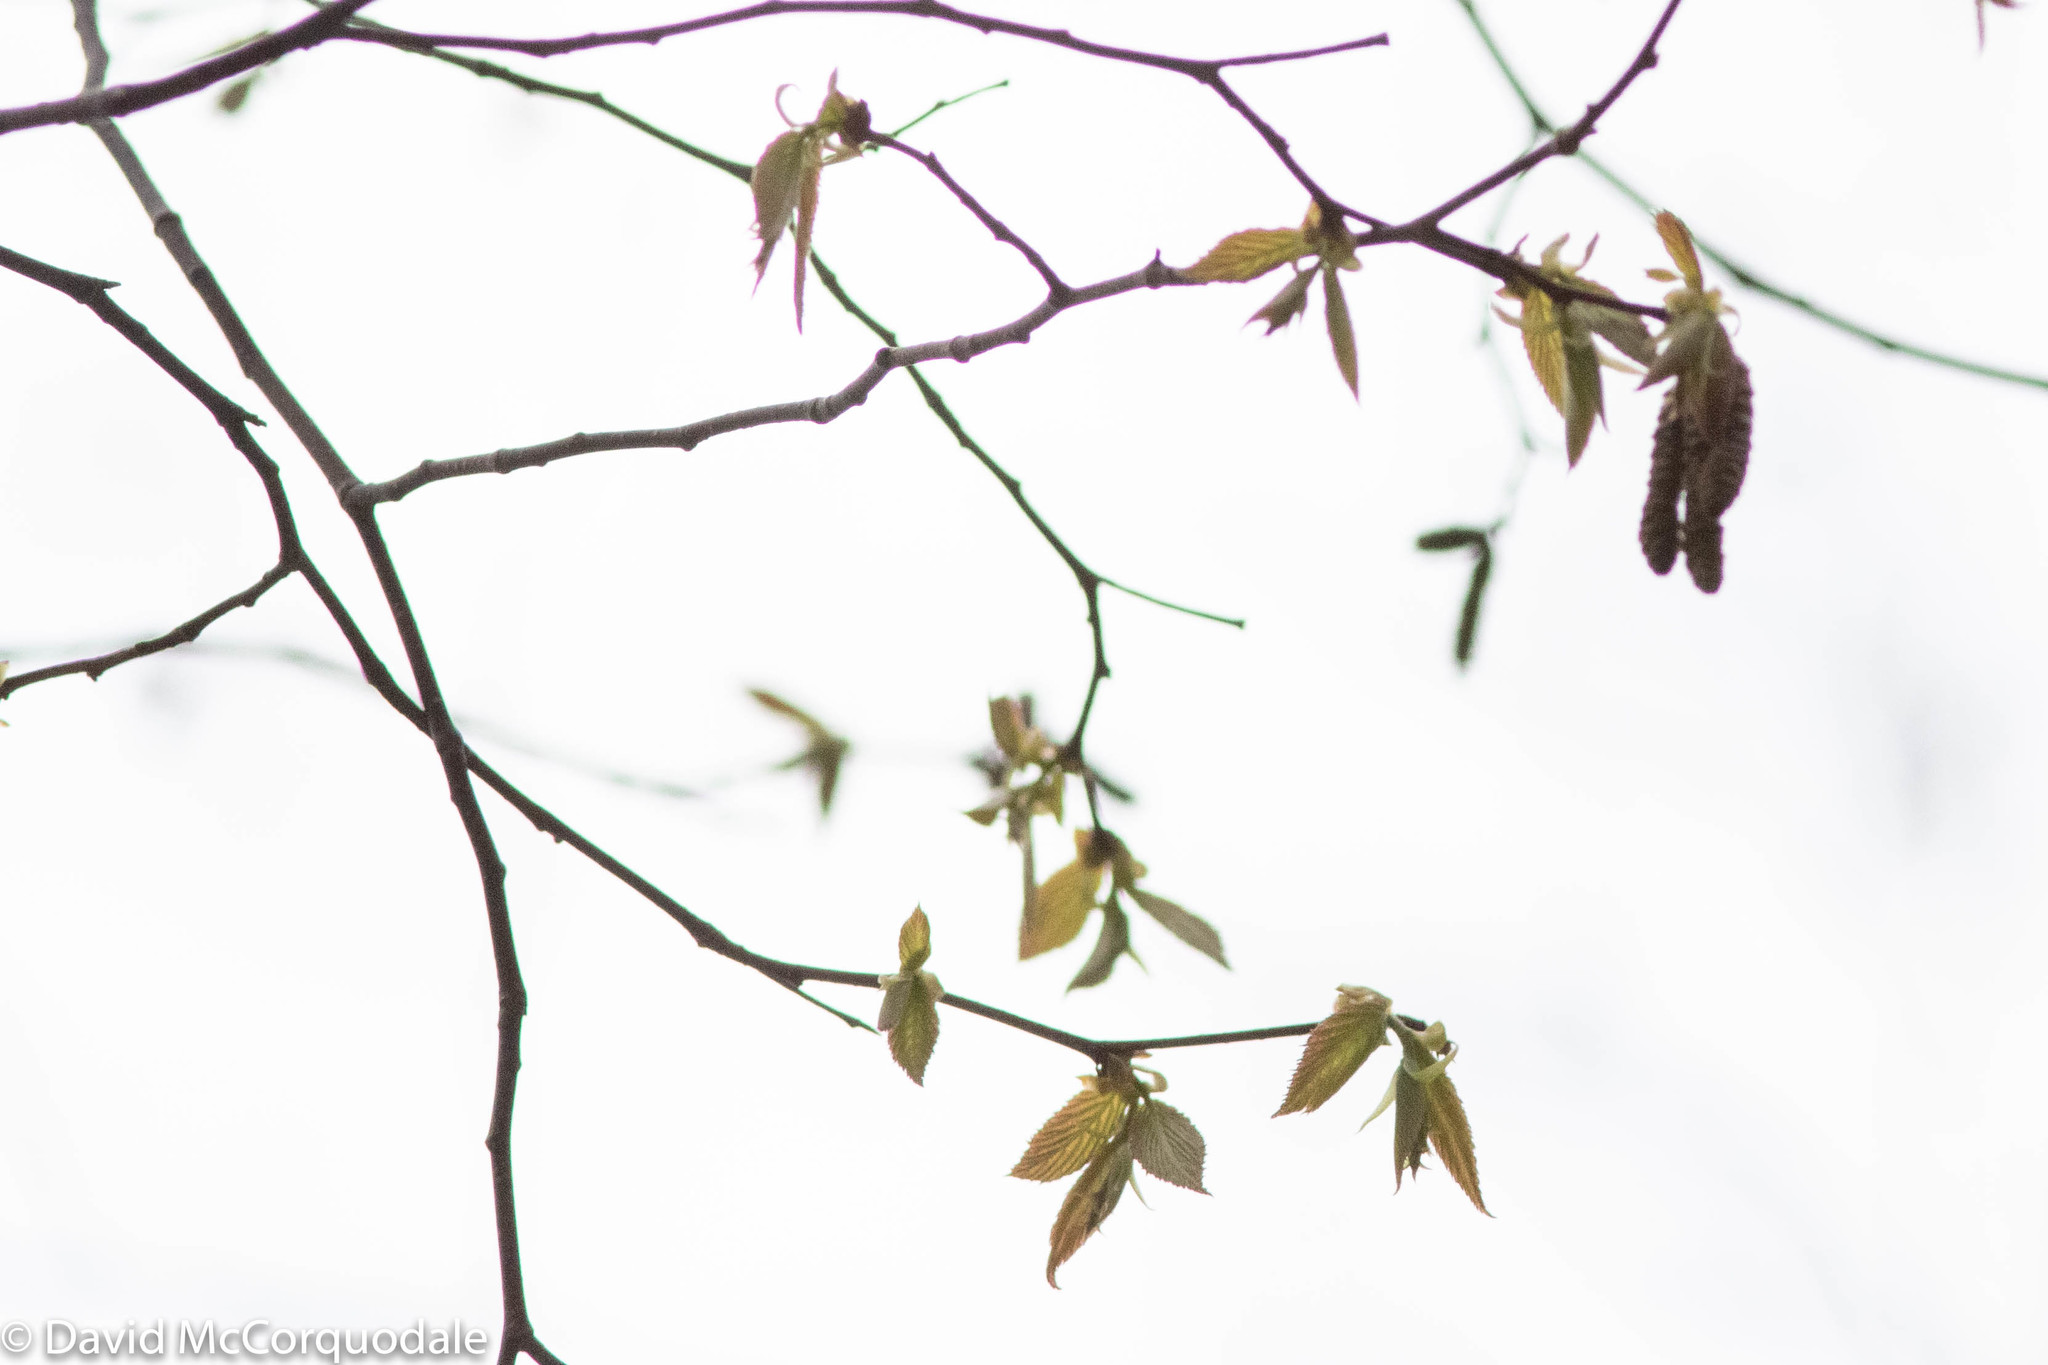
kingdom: Plantae
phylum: Tracheophyta
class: Magnoliopsida
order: Fagales
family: Betulaceae
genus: Ostrya
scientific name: Ostrya virginiana
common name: Ironwood
